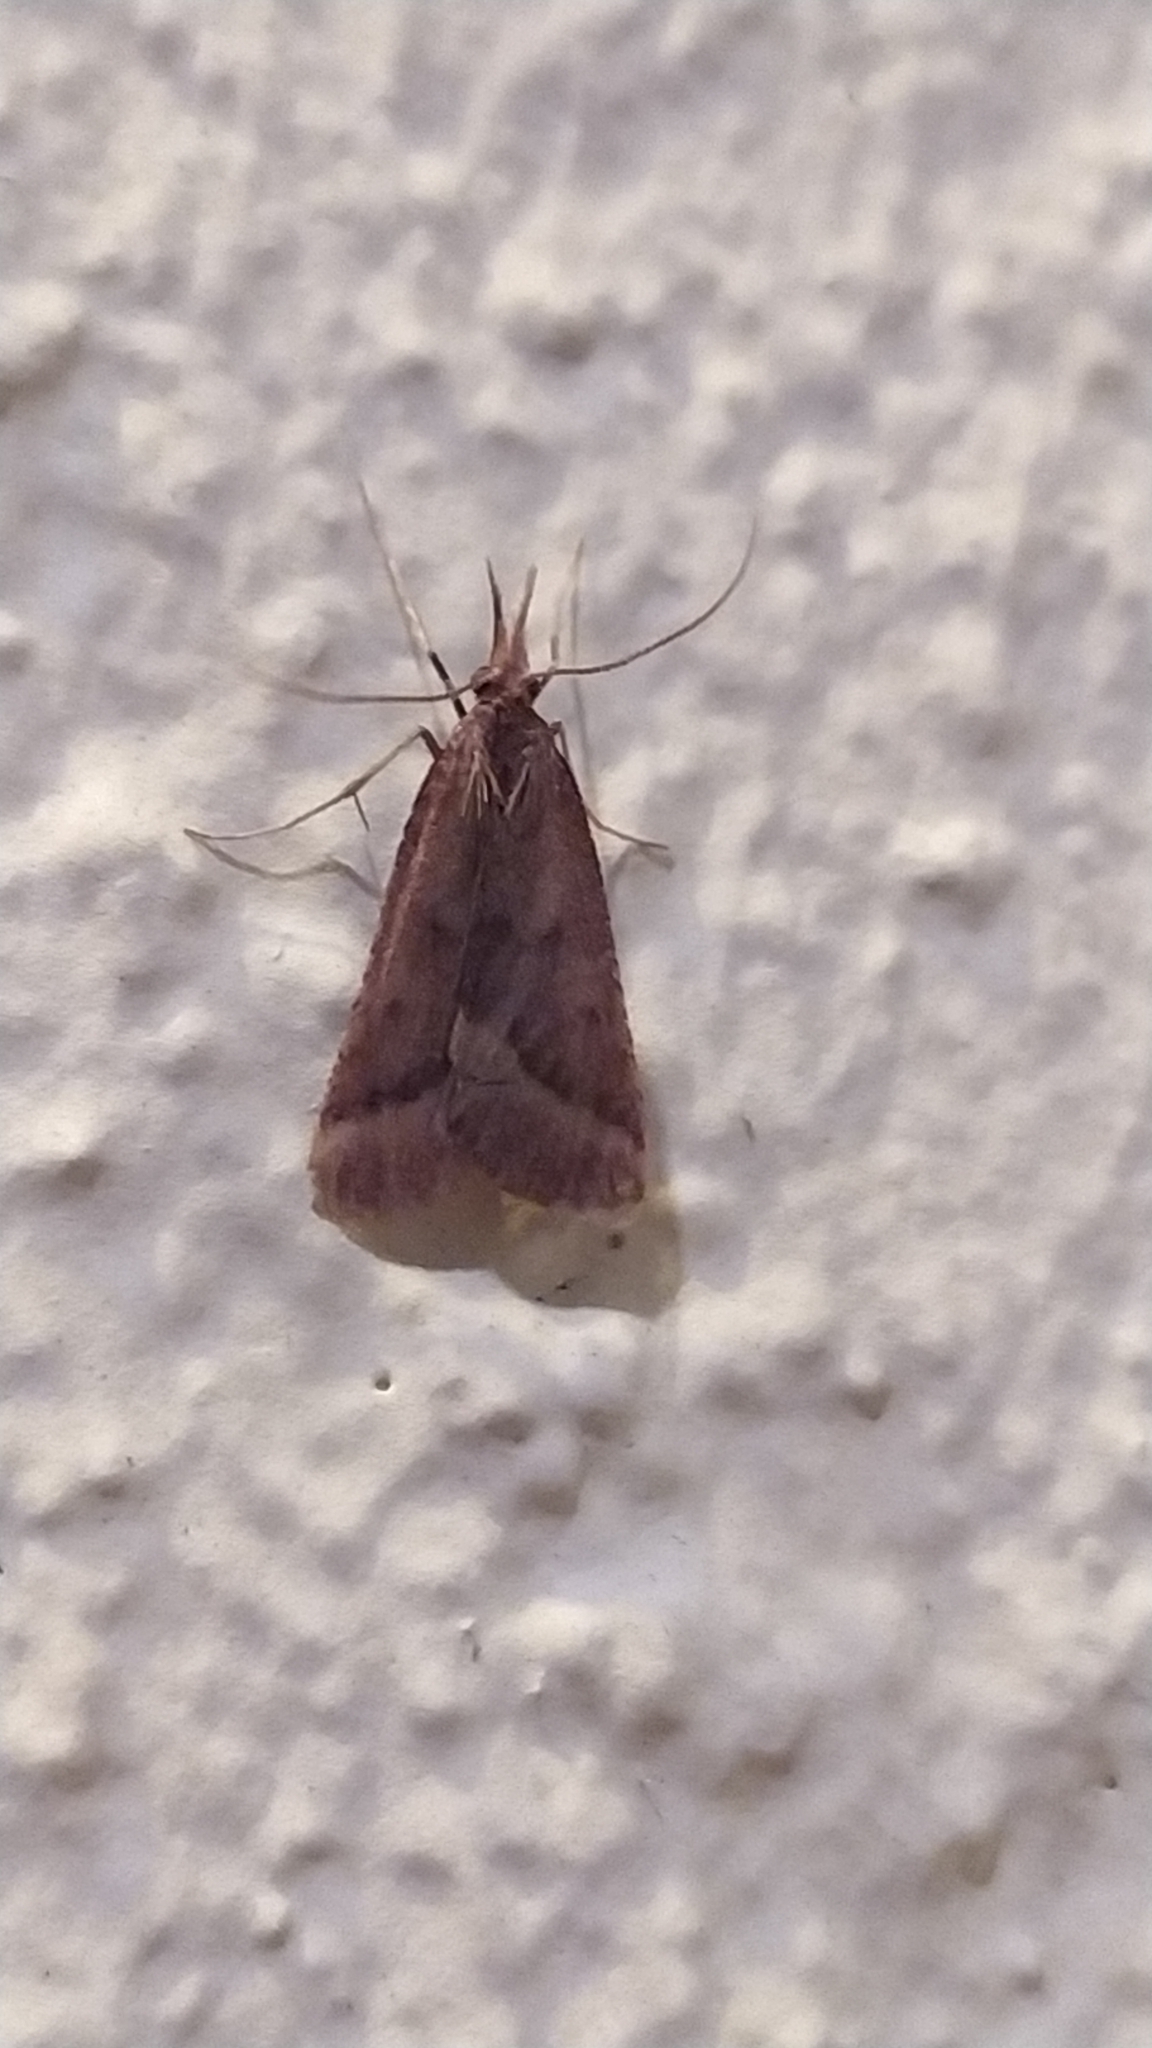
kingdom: Animalia
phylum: Arthropoda
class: Insecta
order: Lepidoptera
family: Pyralidae
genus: Synaphe
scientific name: Synaphe punctalis
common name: Long-legged tabby
